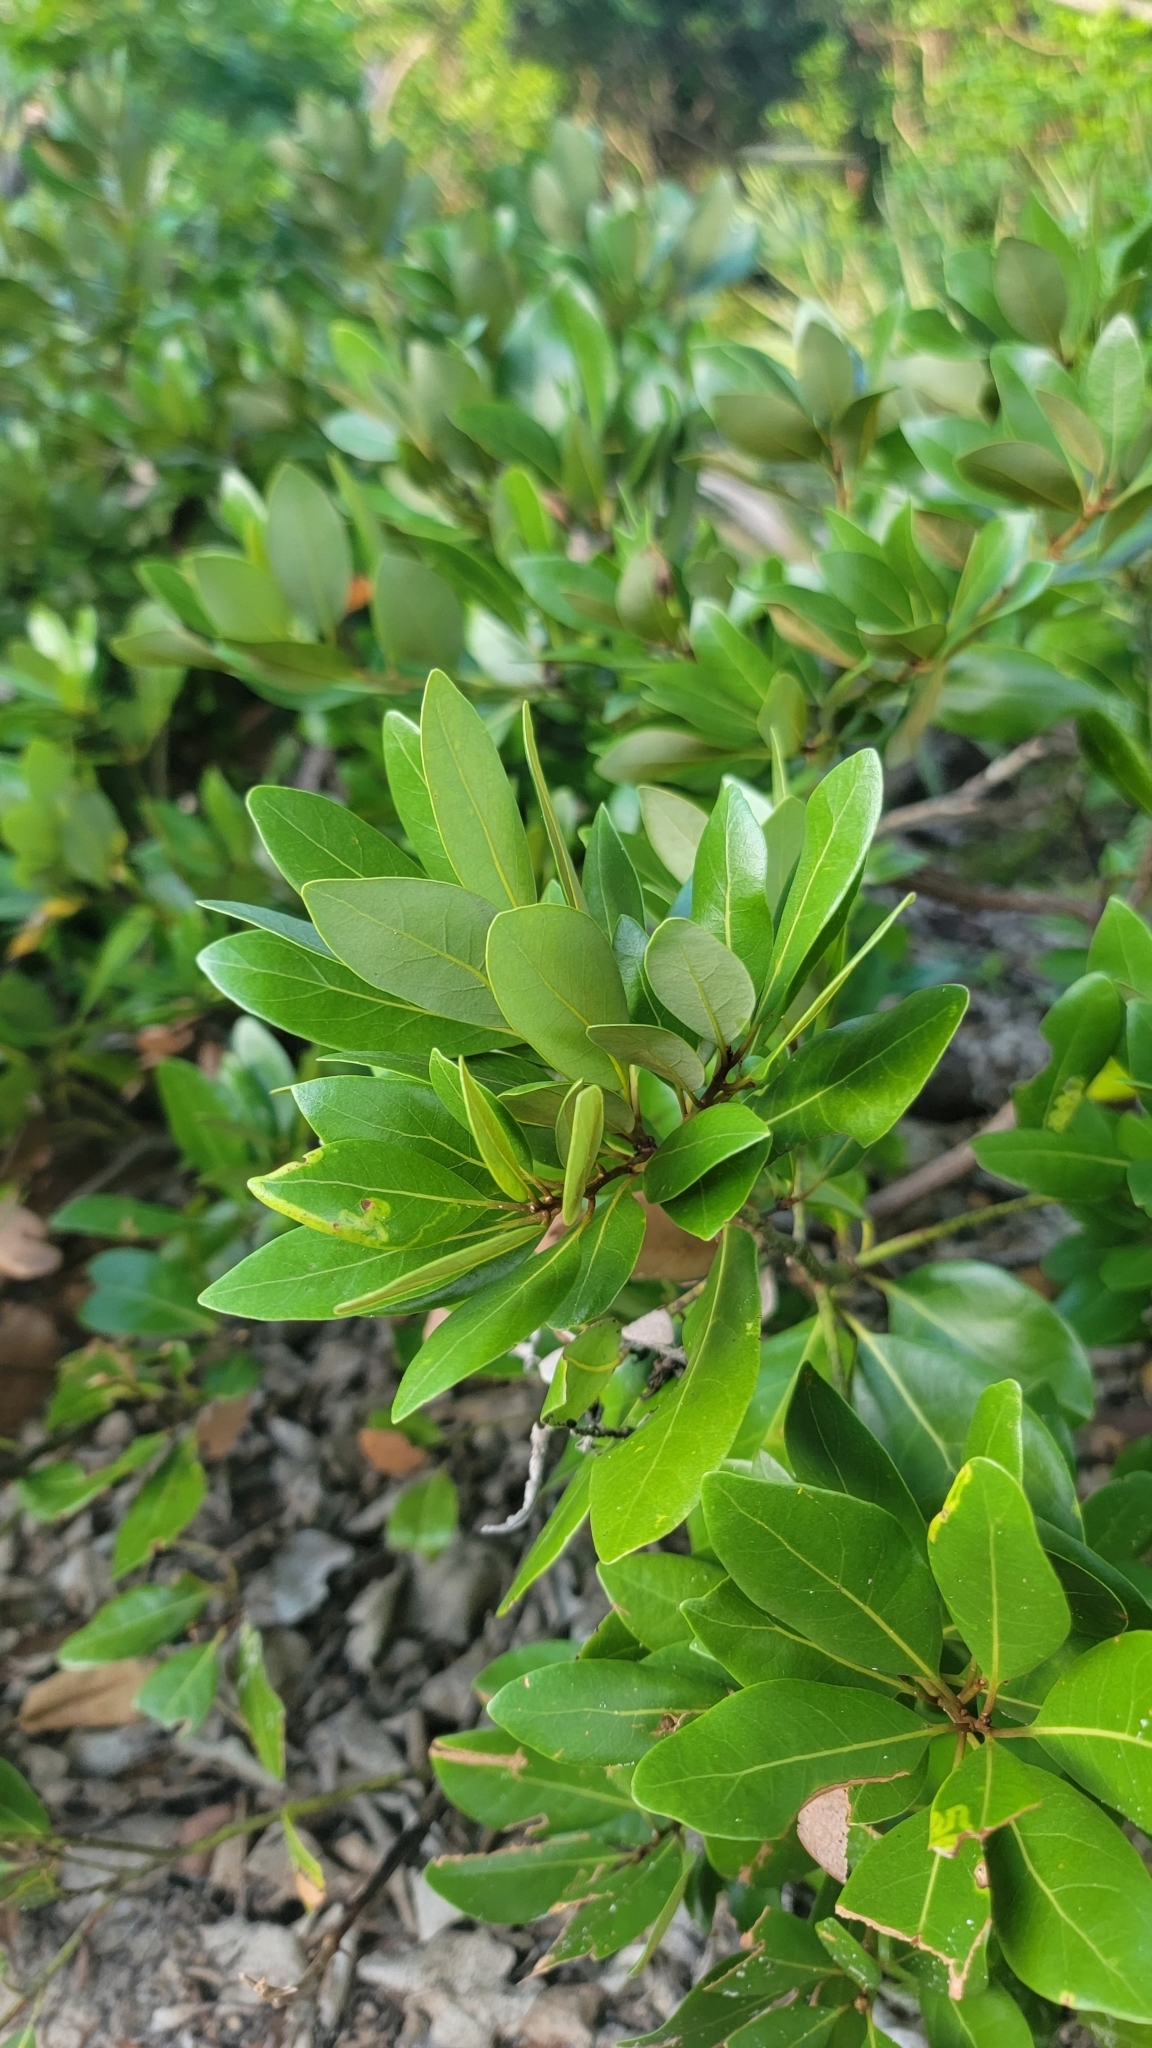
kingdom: Plantae
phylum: Tracheophyta
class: Magnoliopsida
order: Laurales
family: Lauraceae
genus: Persea
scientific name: Persea borbonia
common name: Redbay
